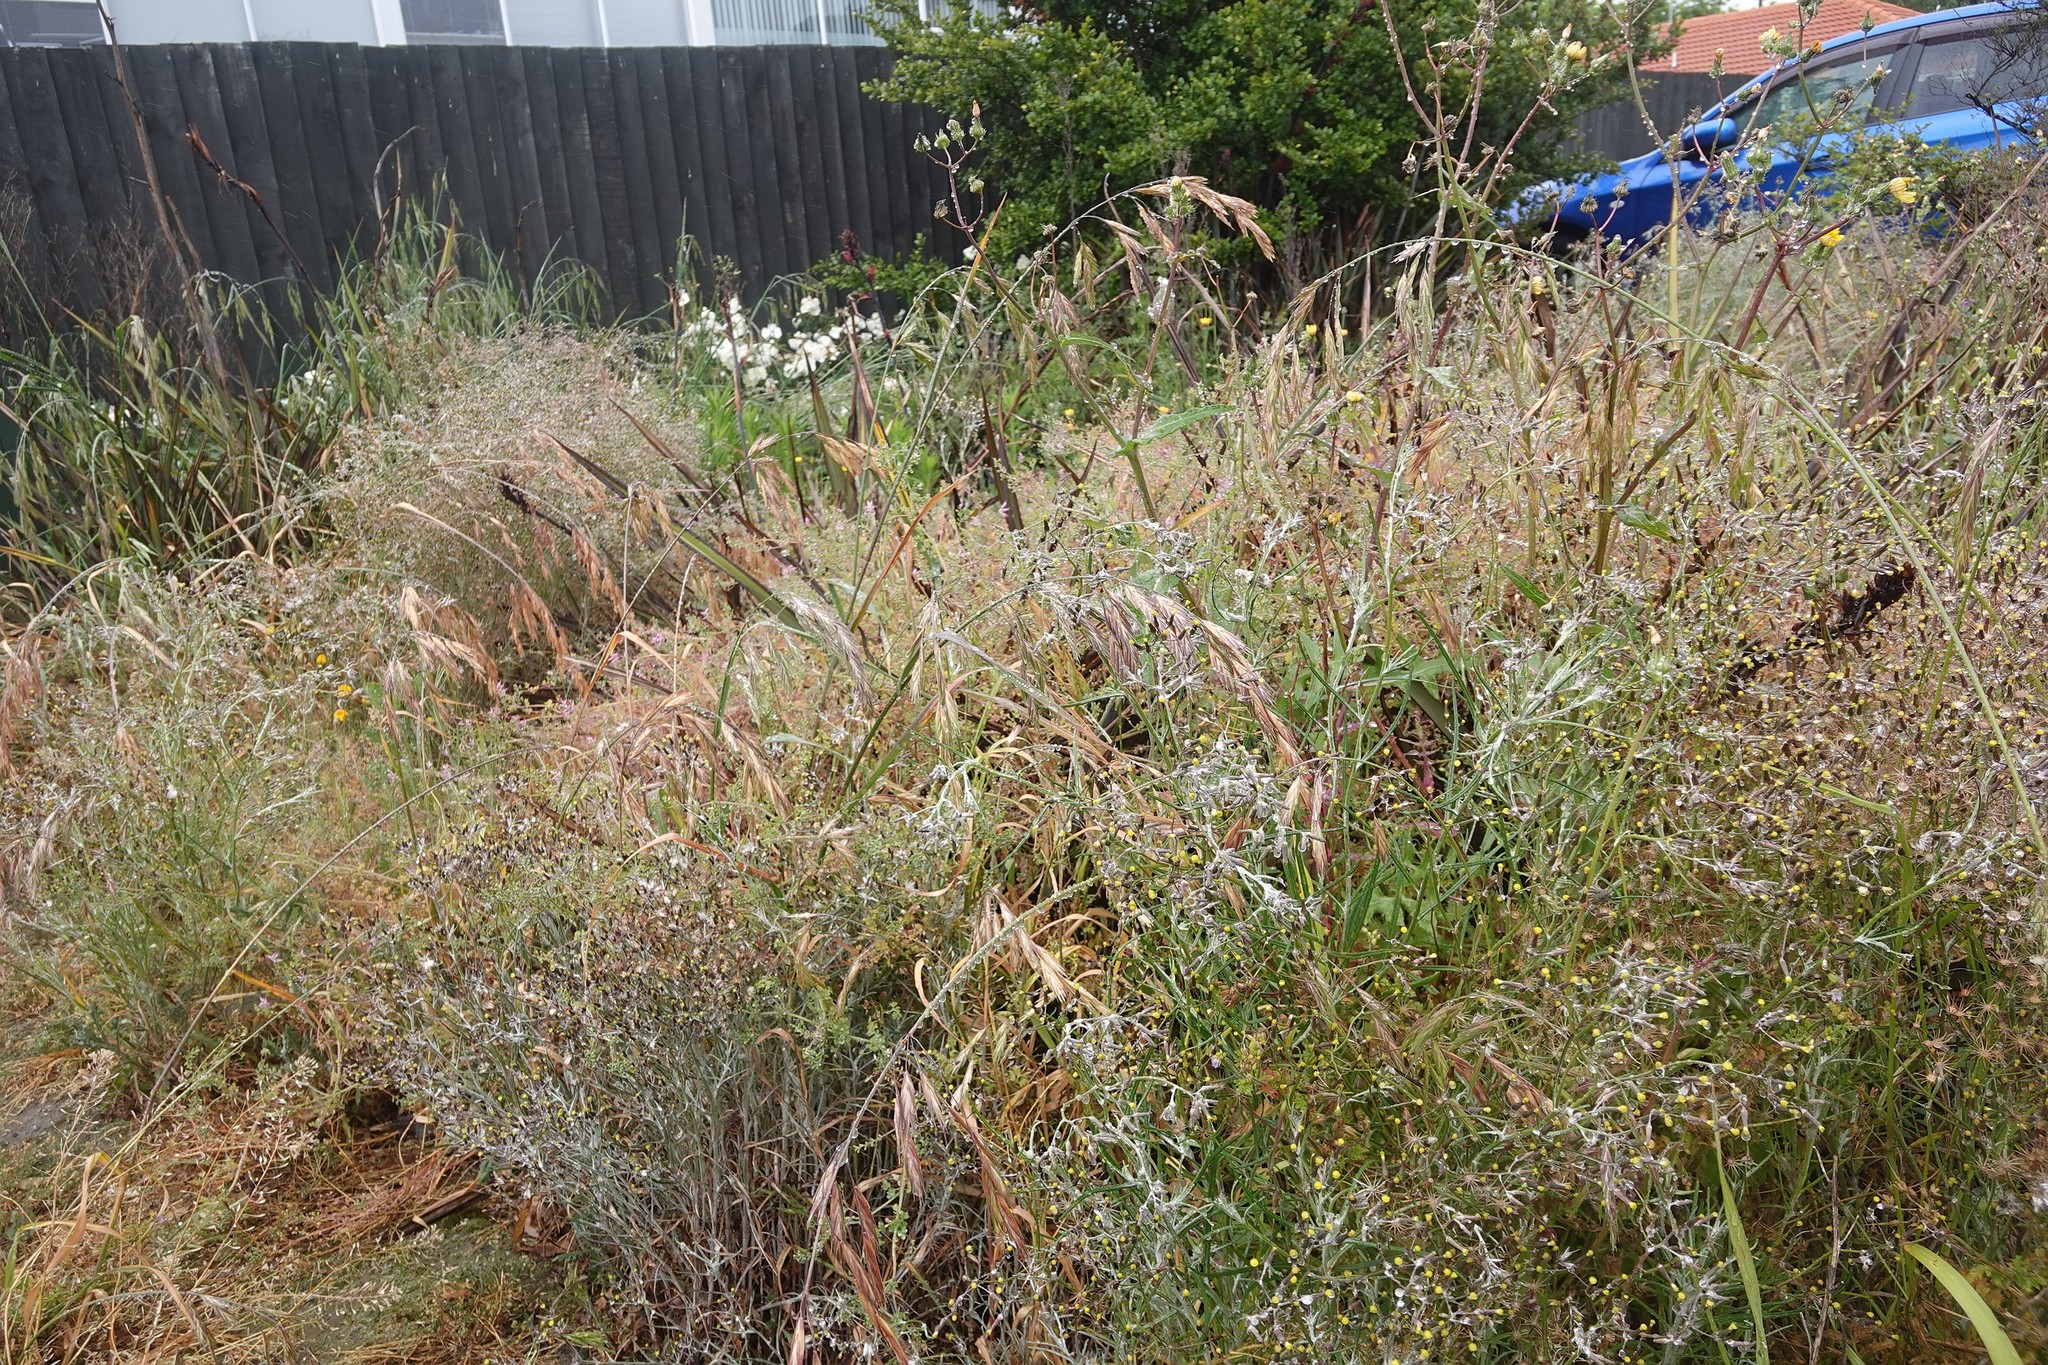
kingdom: Plantae
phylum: Tracheophyta
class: Magnoliopsida
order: Asterales
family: Asteraceae
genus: Senecio
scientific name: Senecio quadridentatus
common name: Cotton fireweed
